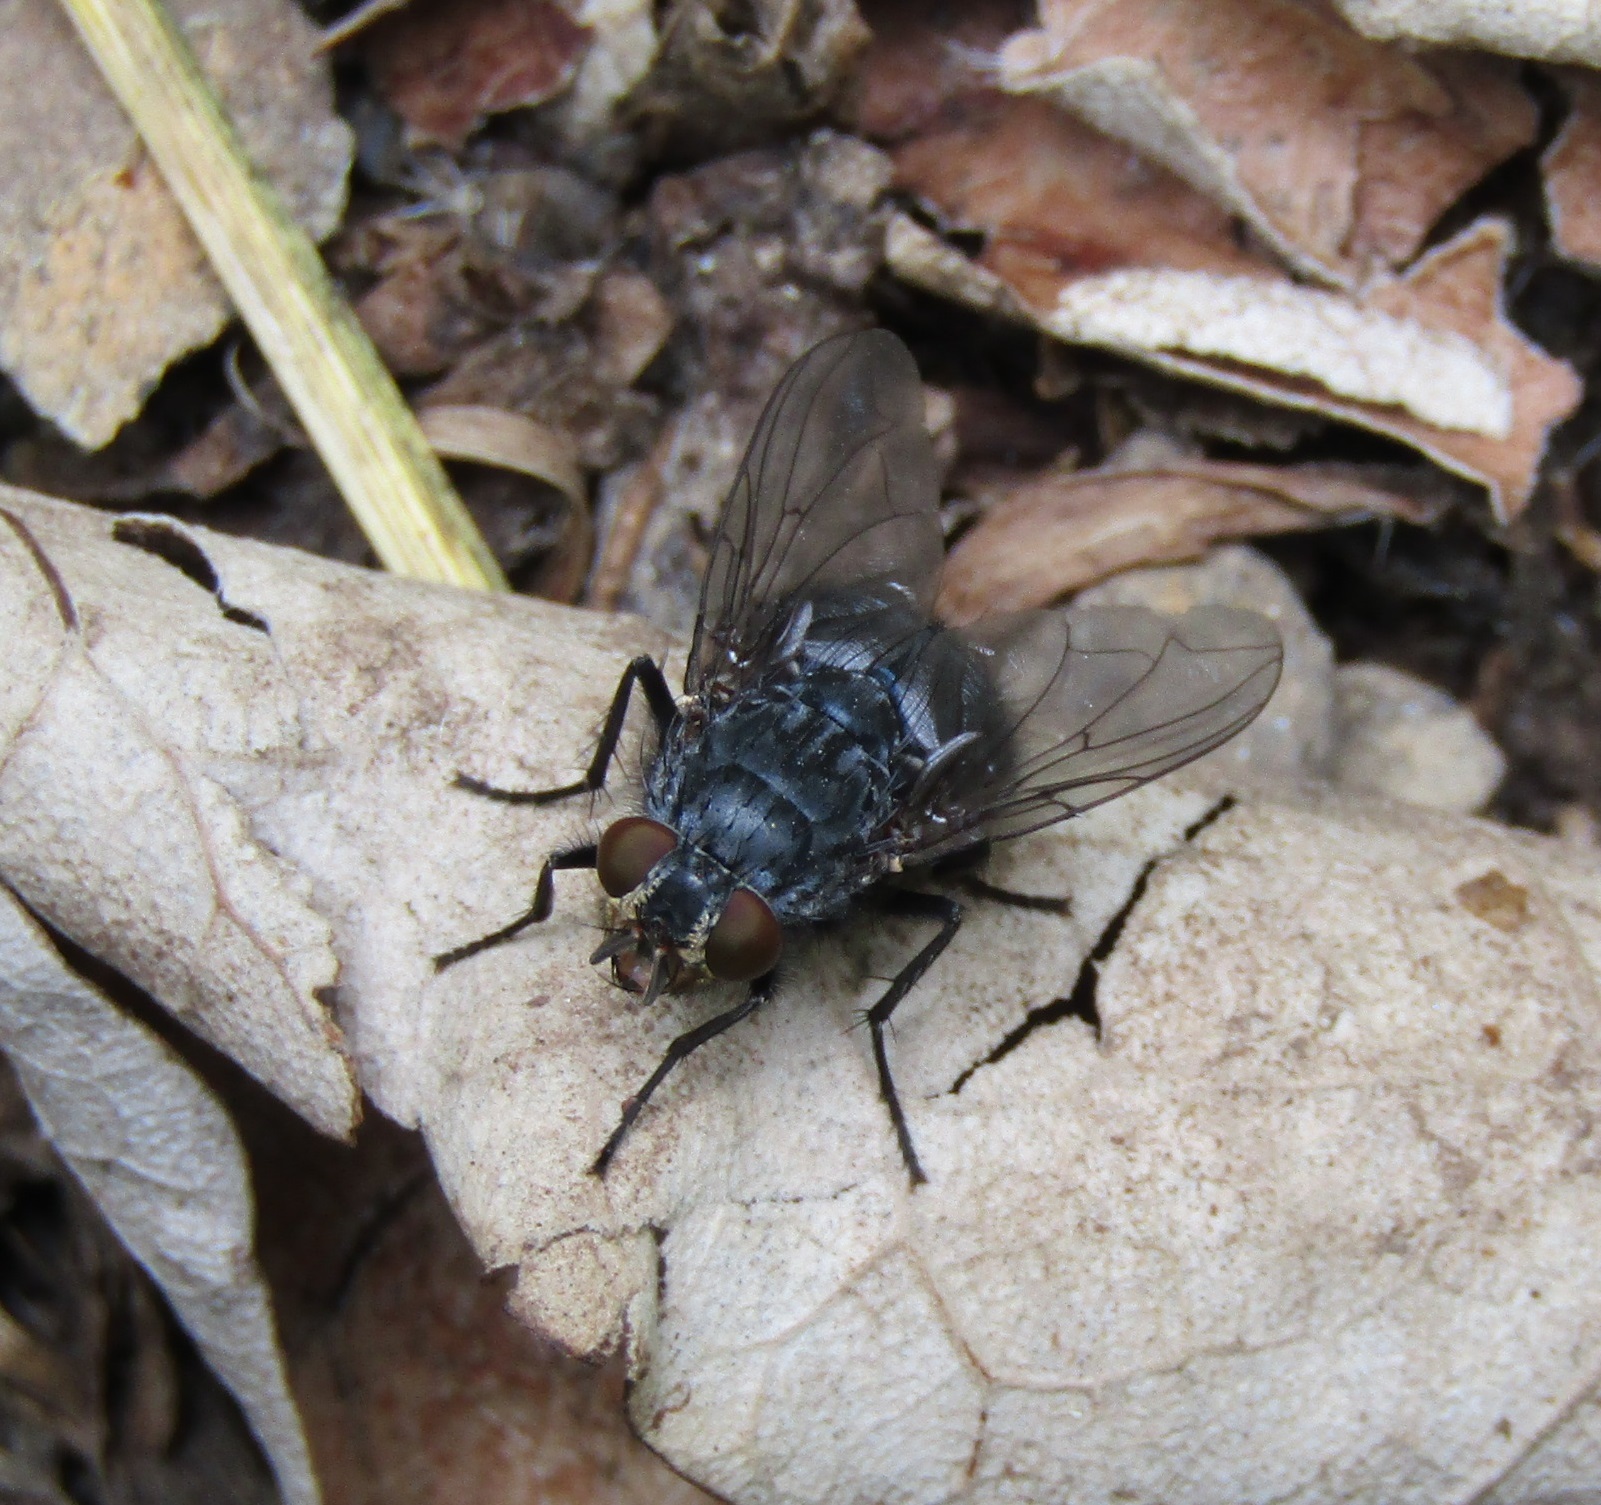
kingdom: Animalia
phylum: Arthropoda
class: Insecta
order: Diptera
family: Calliphoridae
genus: Calliphora
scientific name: Calliphora vicina
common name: Common blow flie
